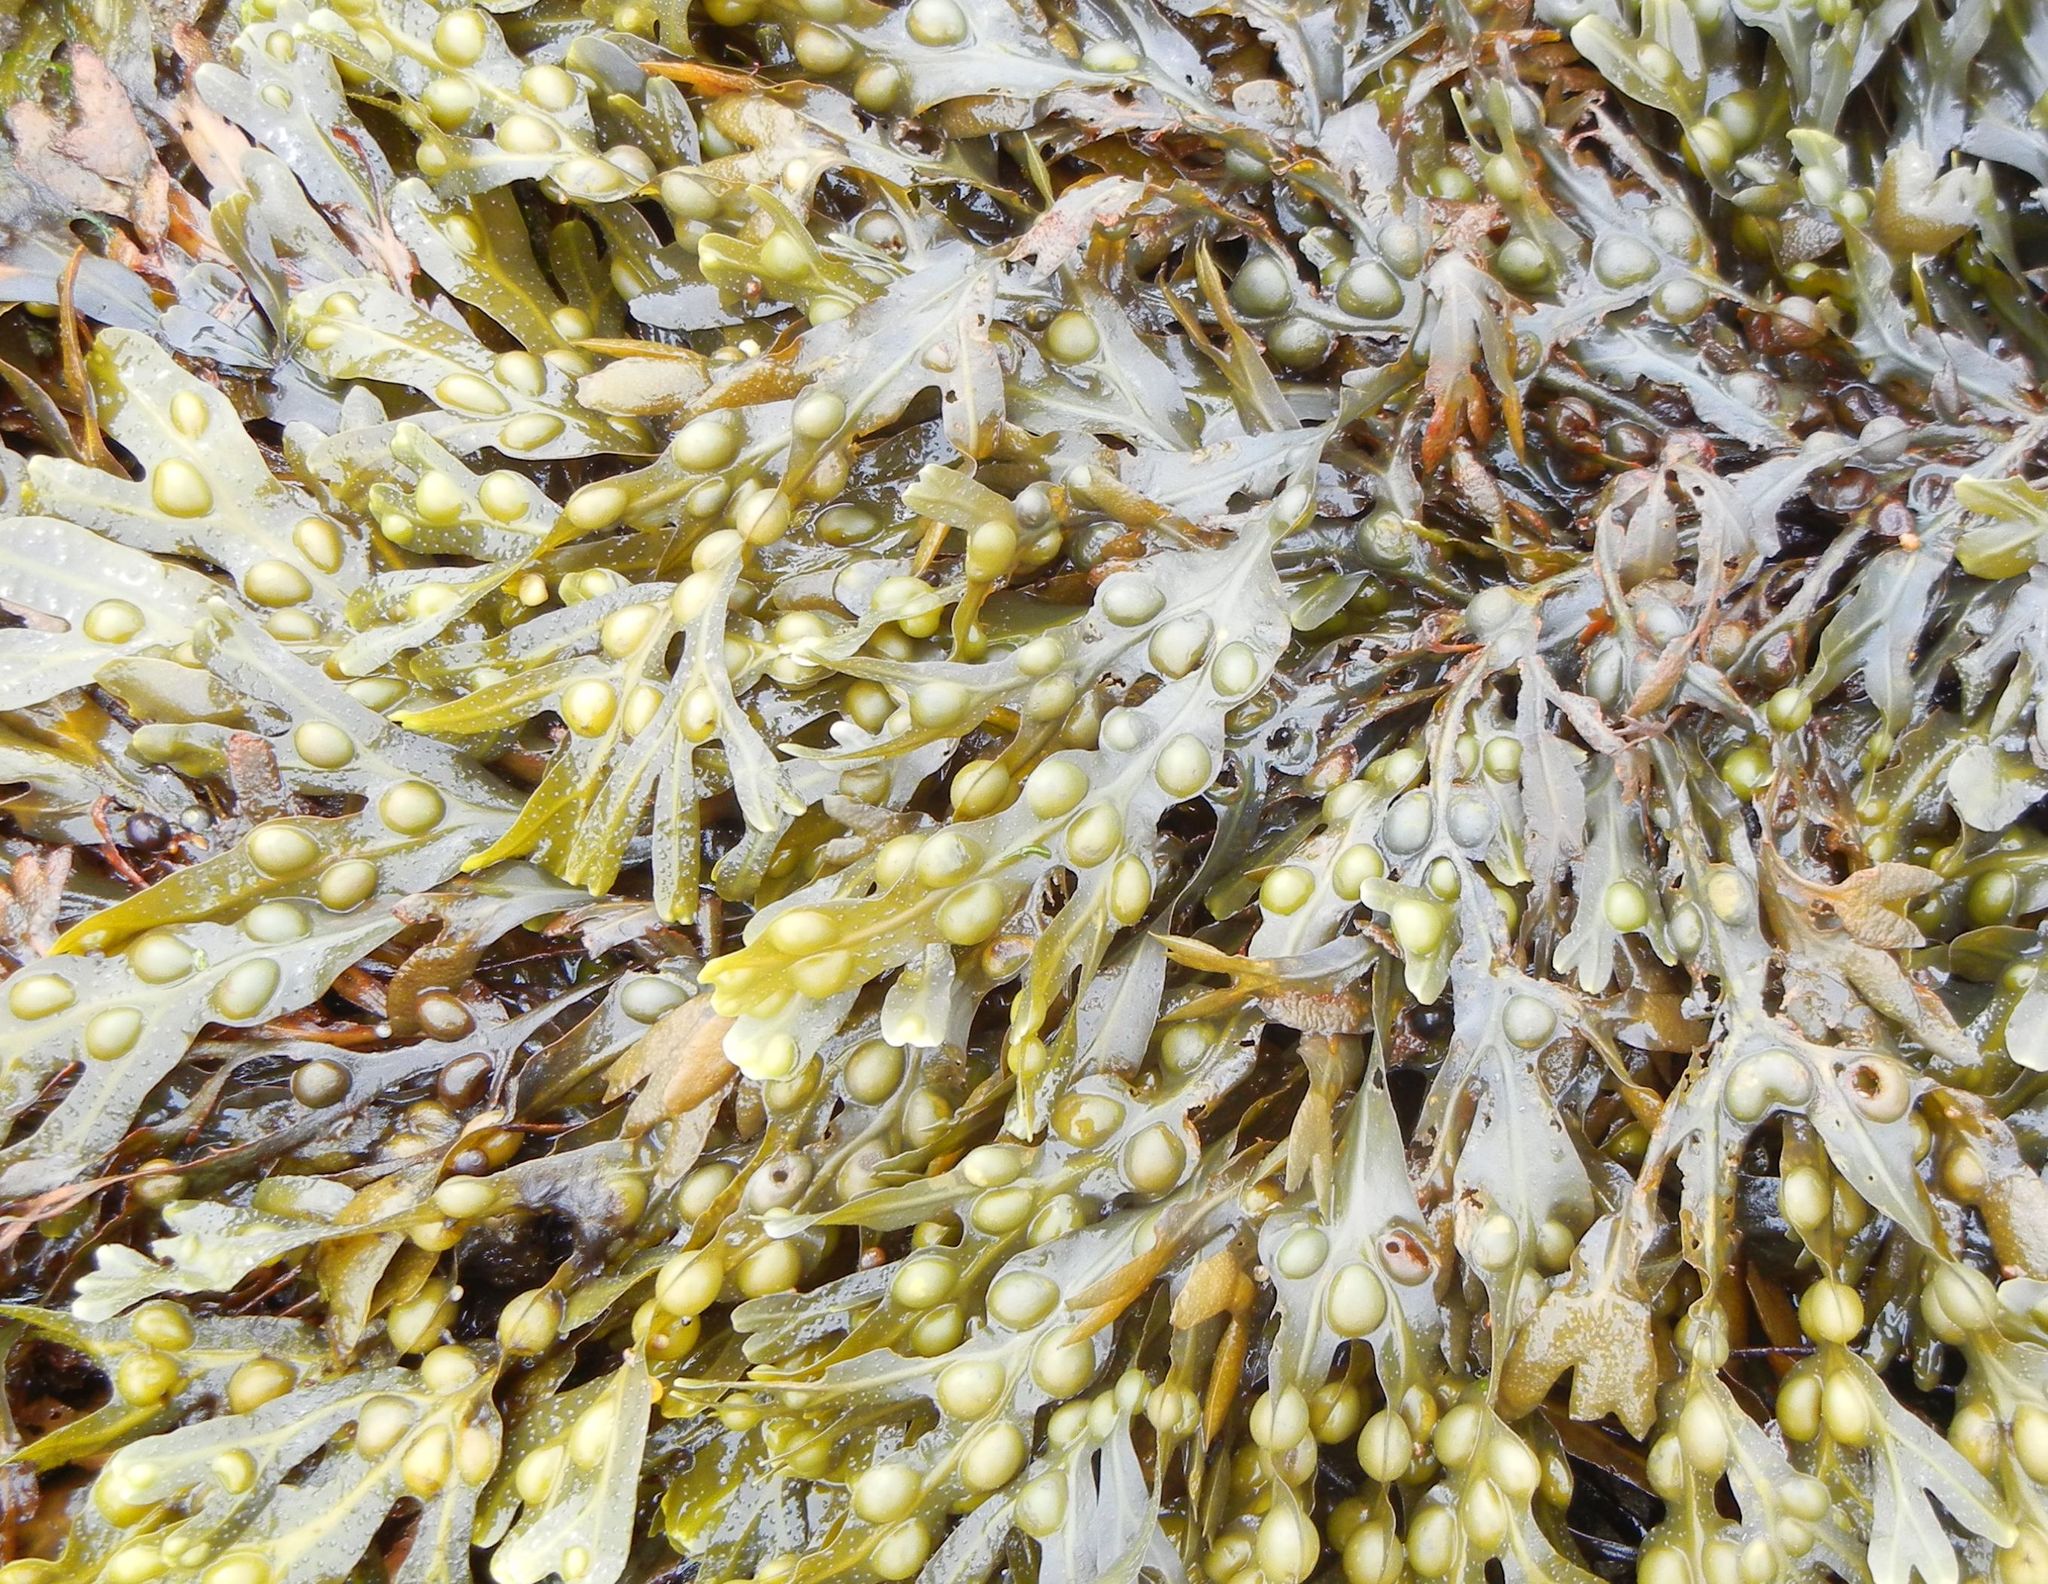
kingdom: Chromista
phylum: Ochrophyta
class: Phaeophyceae
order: Fucales
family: Fucaceae
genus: Fucus
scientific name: Fucus vesiculosus
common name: Bladder wrack
